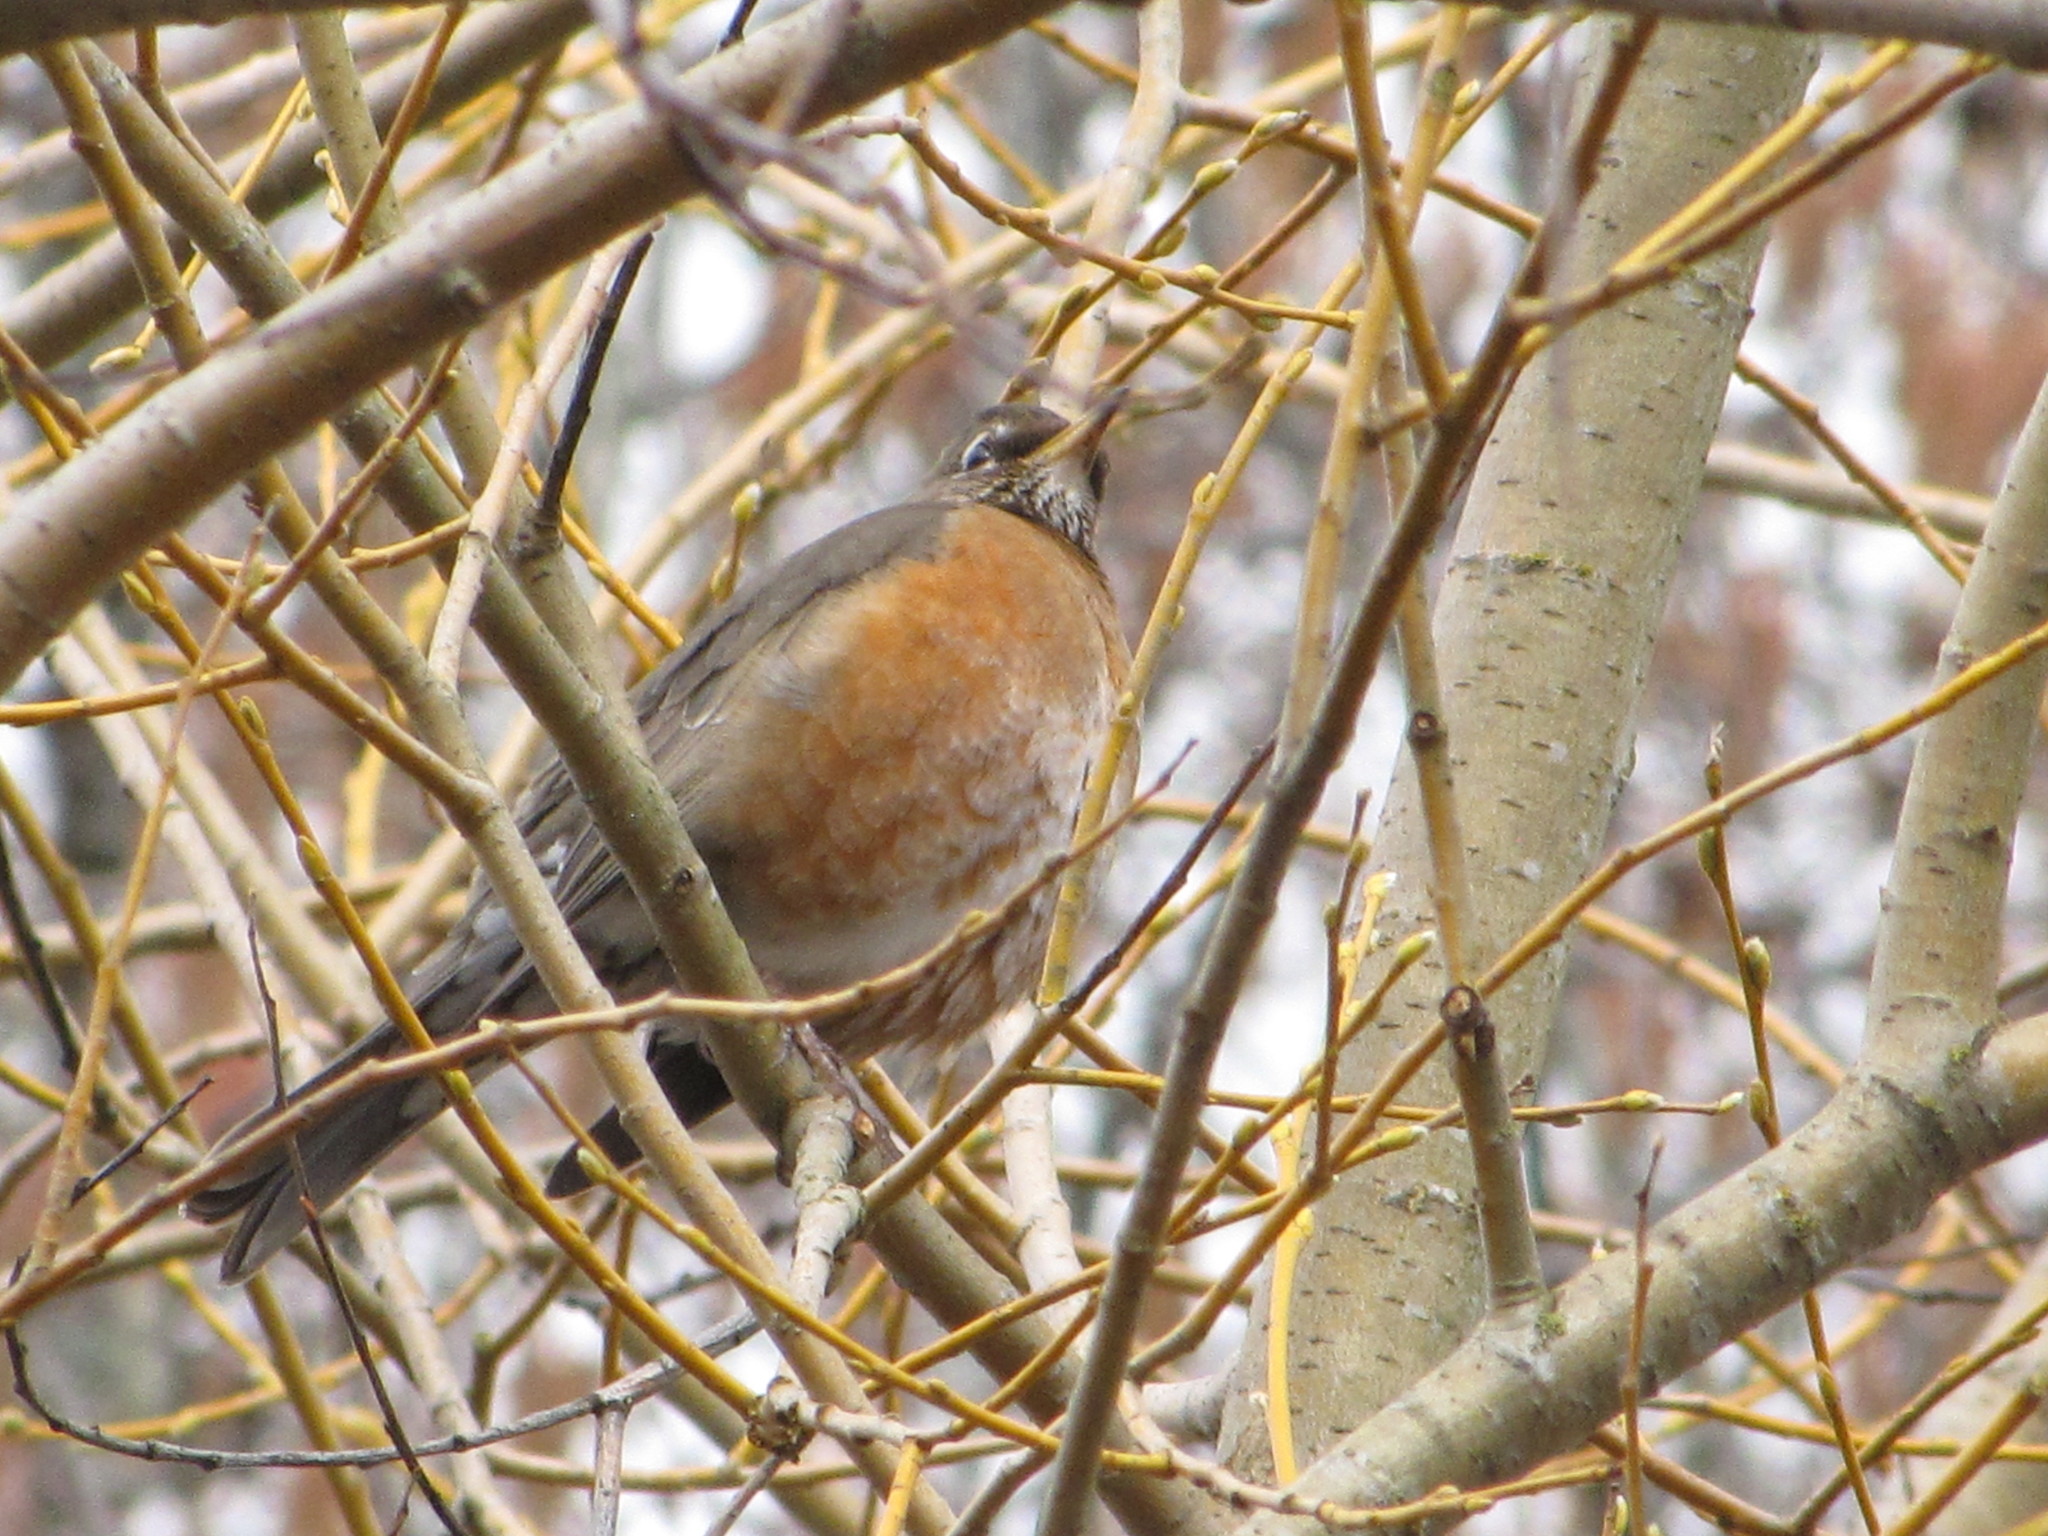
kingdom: Animalia
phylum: Chordata
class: Aves
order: Passeriformes
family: Turdidae
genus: Turdus
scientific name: Turdus migratorius
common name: American robin
